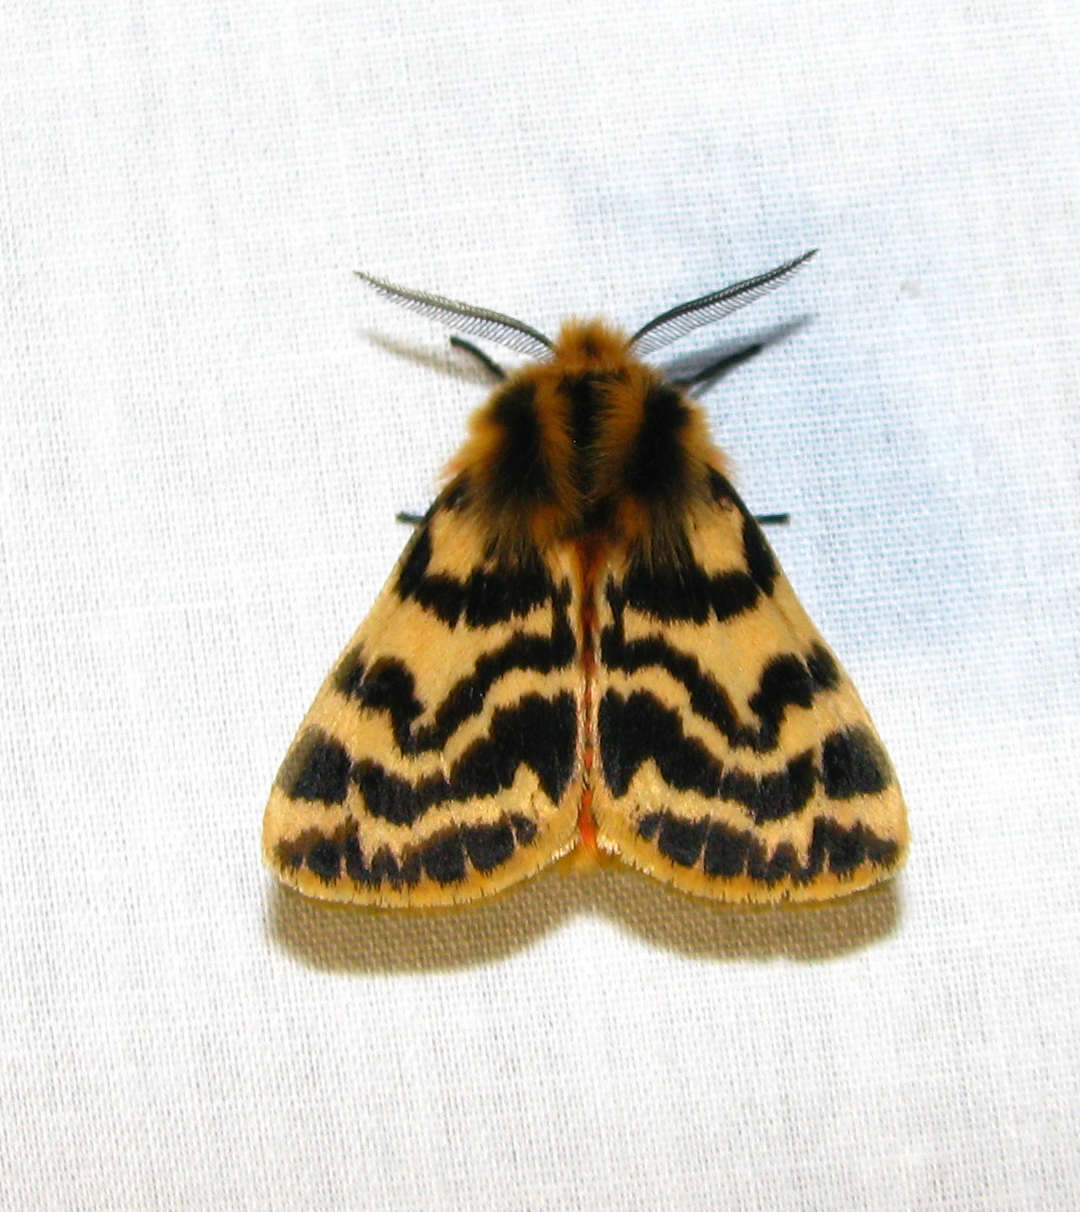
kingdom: Animalia
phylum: Arthropoda
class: Insecta
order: Lepidoptera
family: Erebidae
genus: Ardices
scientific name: Ardices curvata
